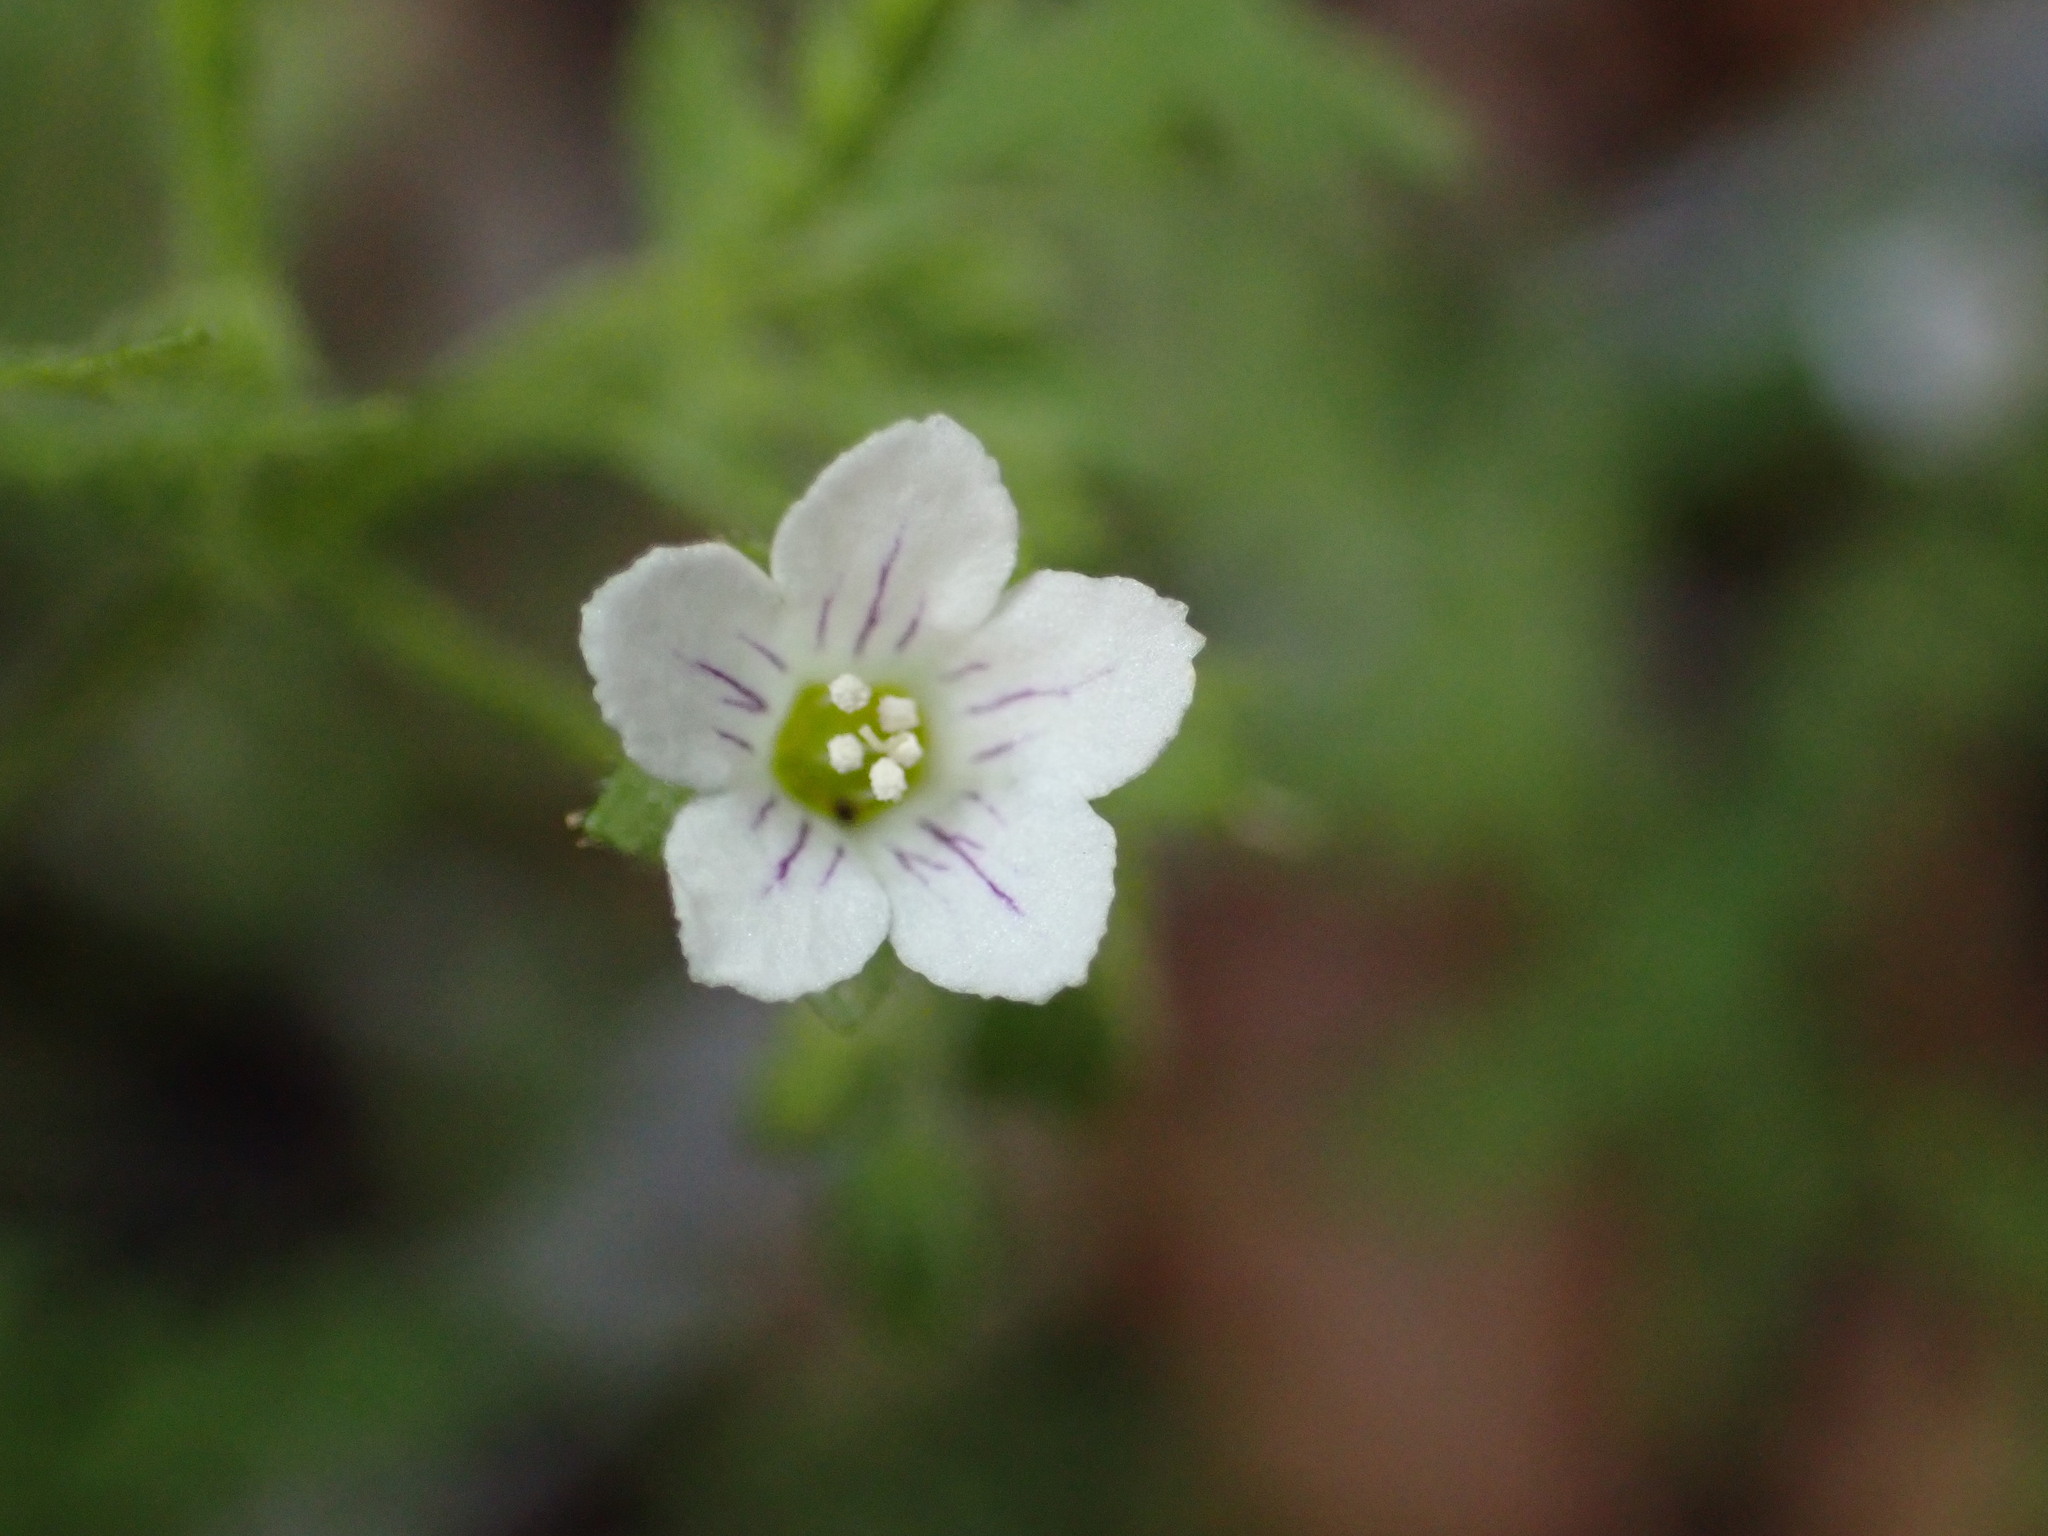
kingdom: Plantae
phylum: Tracheophyta
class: Magnoliopsida
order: Boraginales
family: Hydrophyllaceae
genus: Eucrypta
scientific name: Eucrypta chrysanthemifolia
